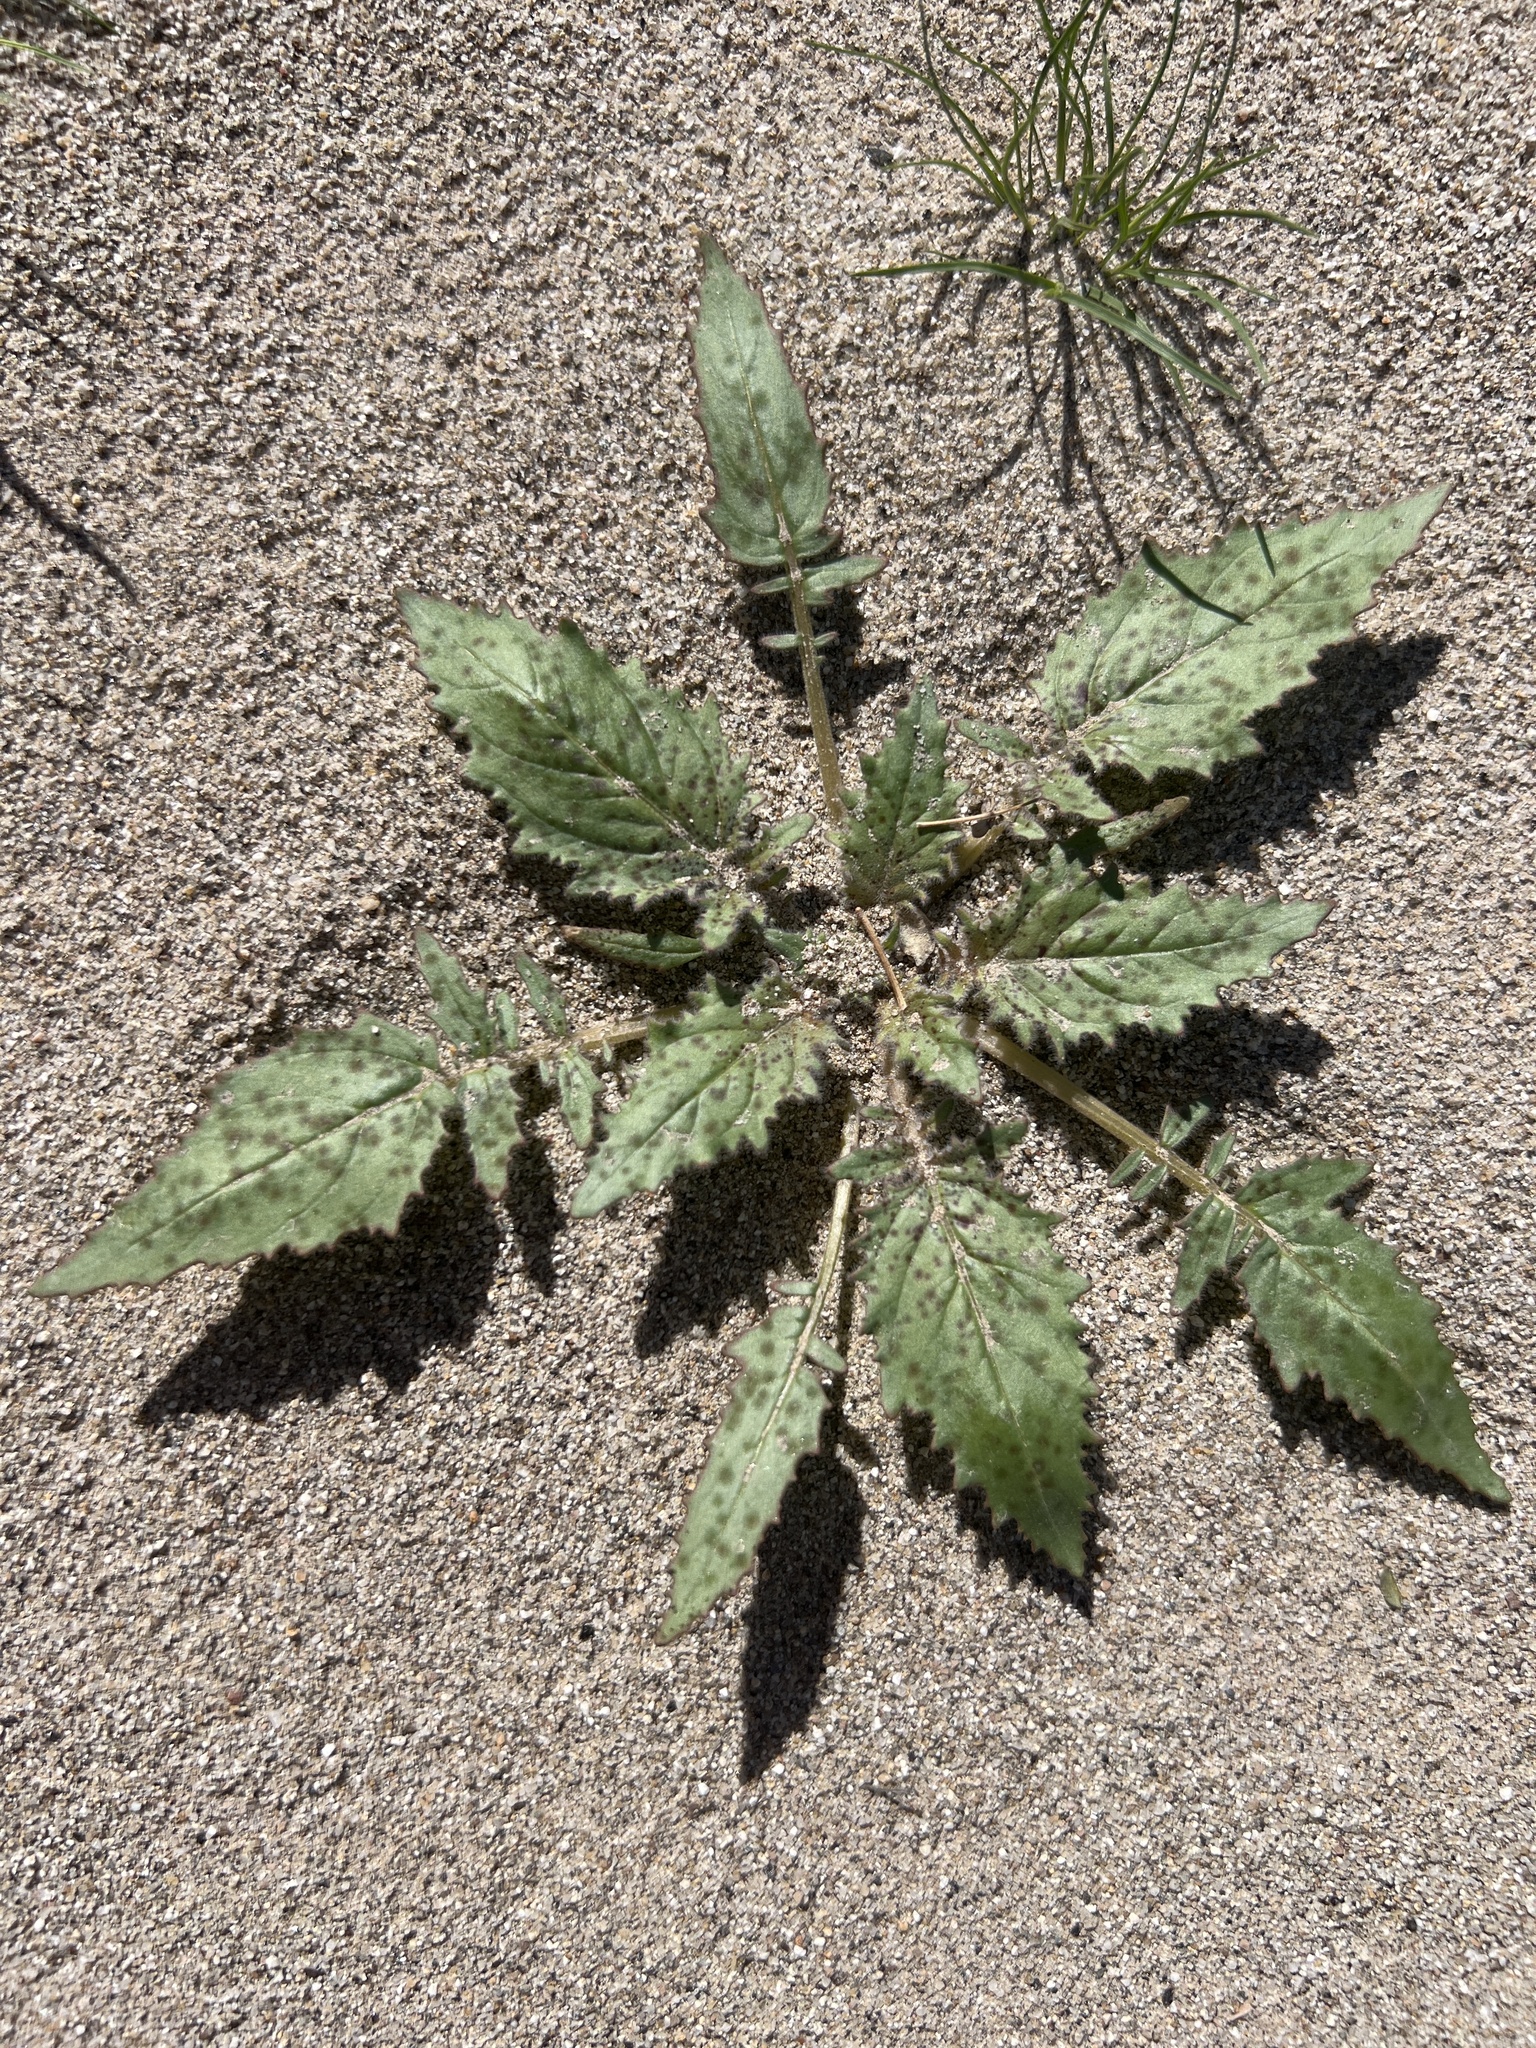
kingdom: Plantae
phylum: Tracheophyta
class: Magnoliopsida
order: Myrtales
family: Onagraceae
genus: Chylismia
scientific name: Chylismia claviformis
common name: Browneyes
